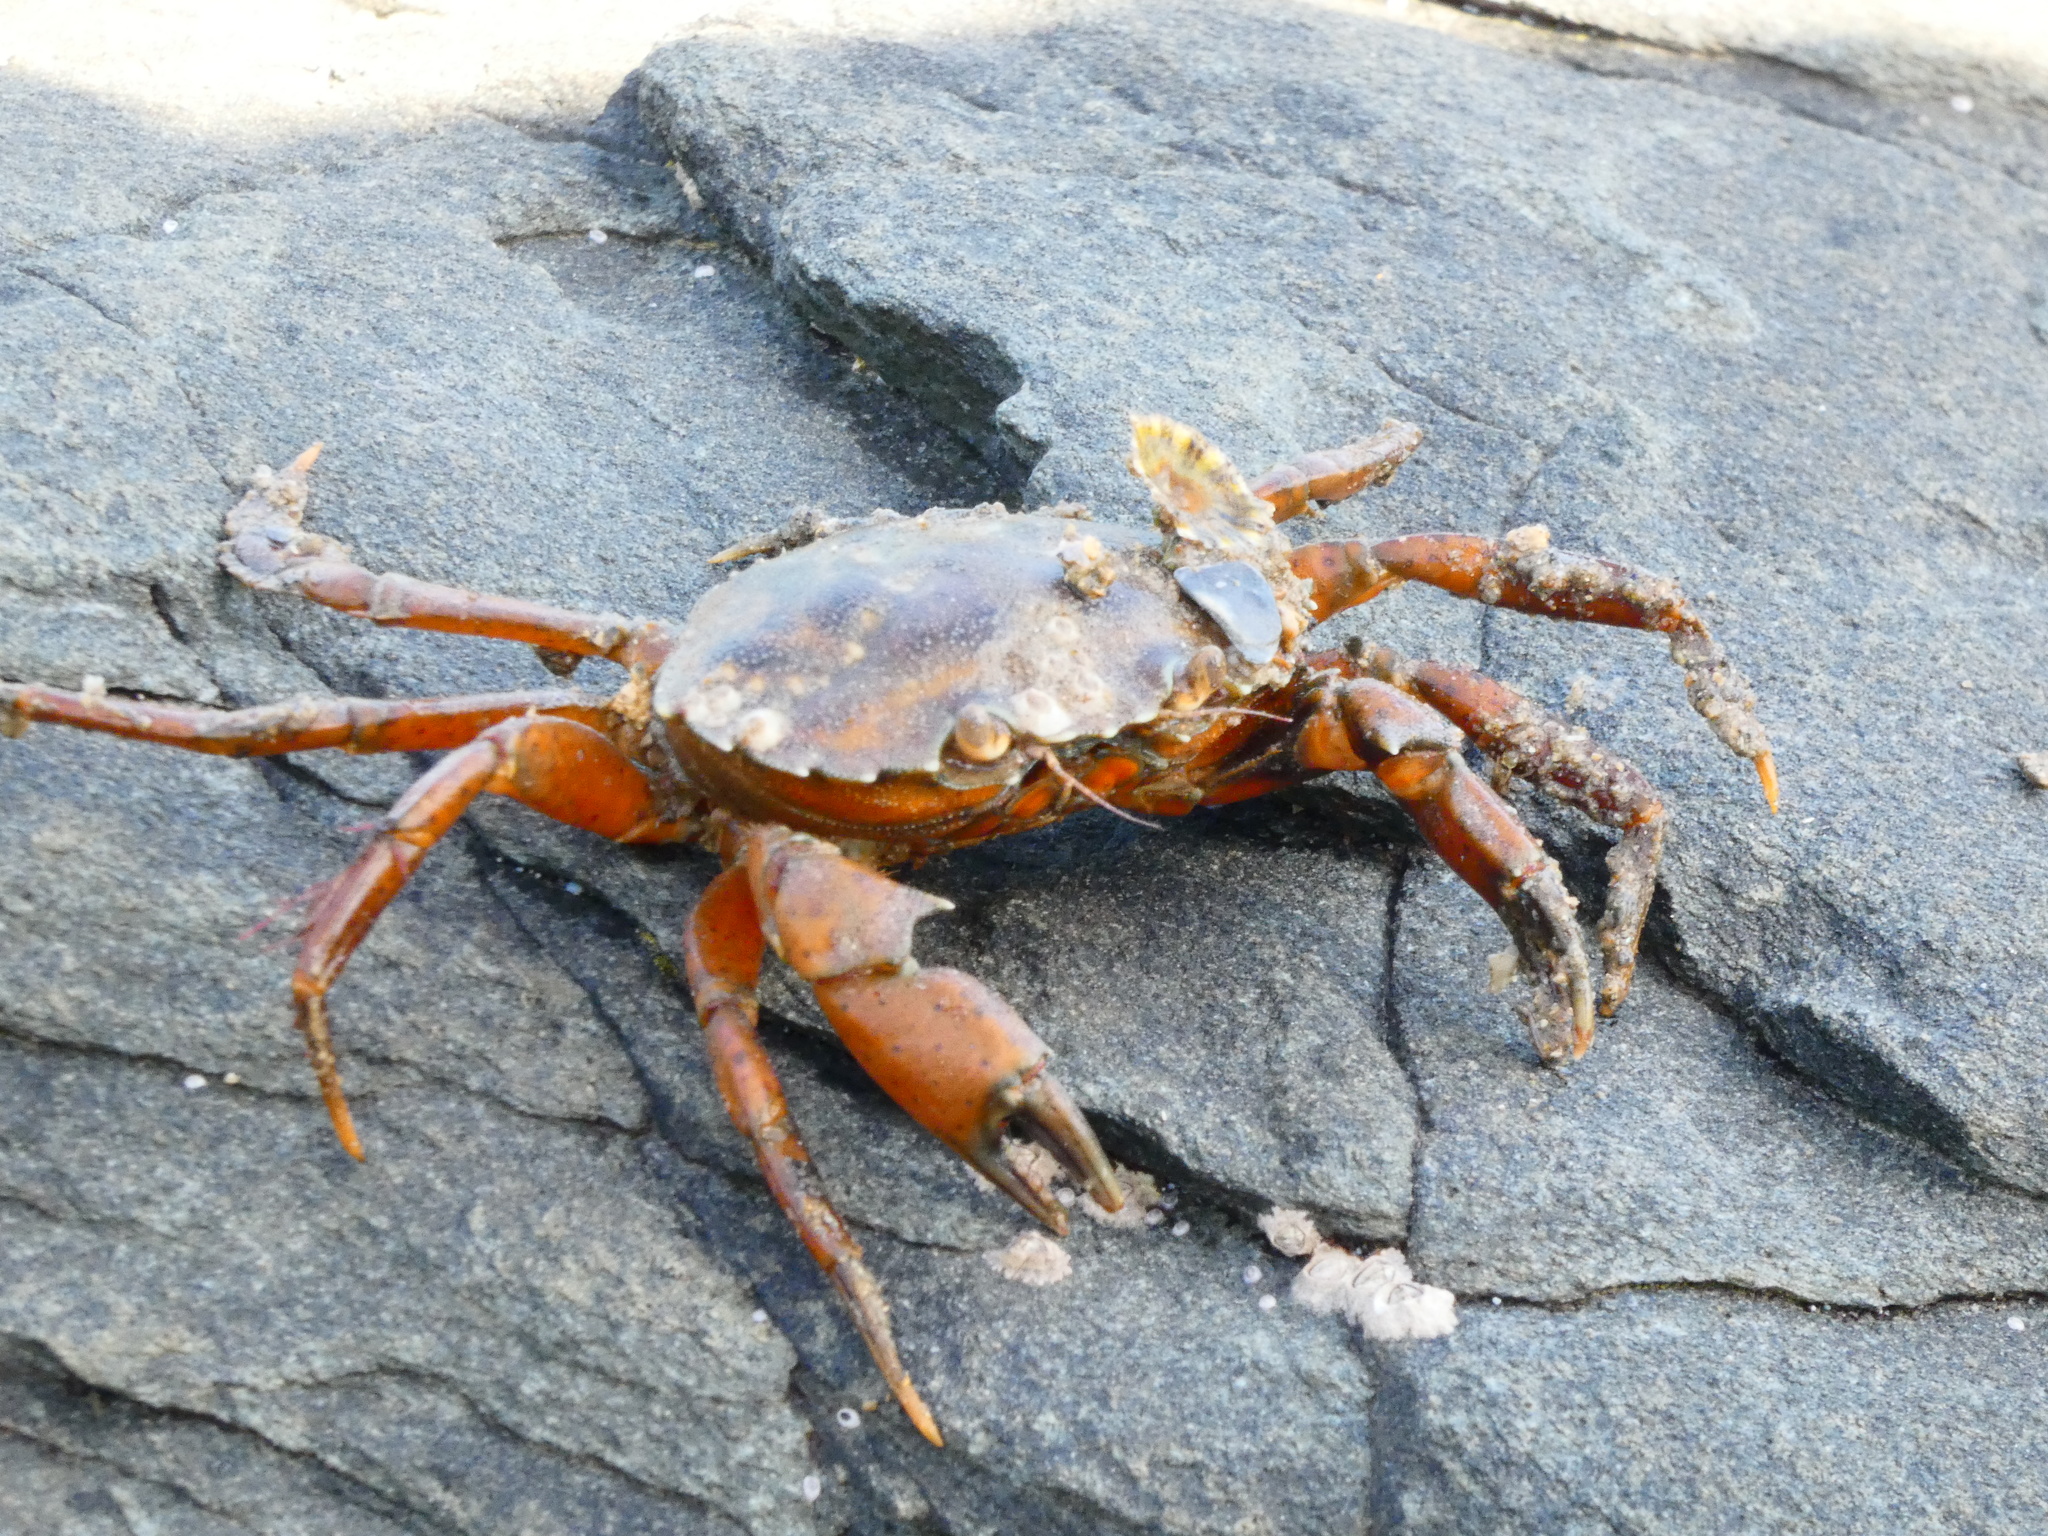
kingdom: Animalia
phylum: Arthropoda
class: Malacostraca
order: Decapoda
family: Carcinidae
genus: Carcinus
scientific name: Carcinus maenas
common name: European green crab
